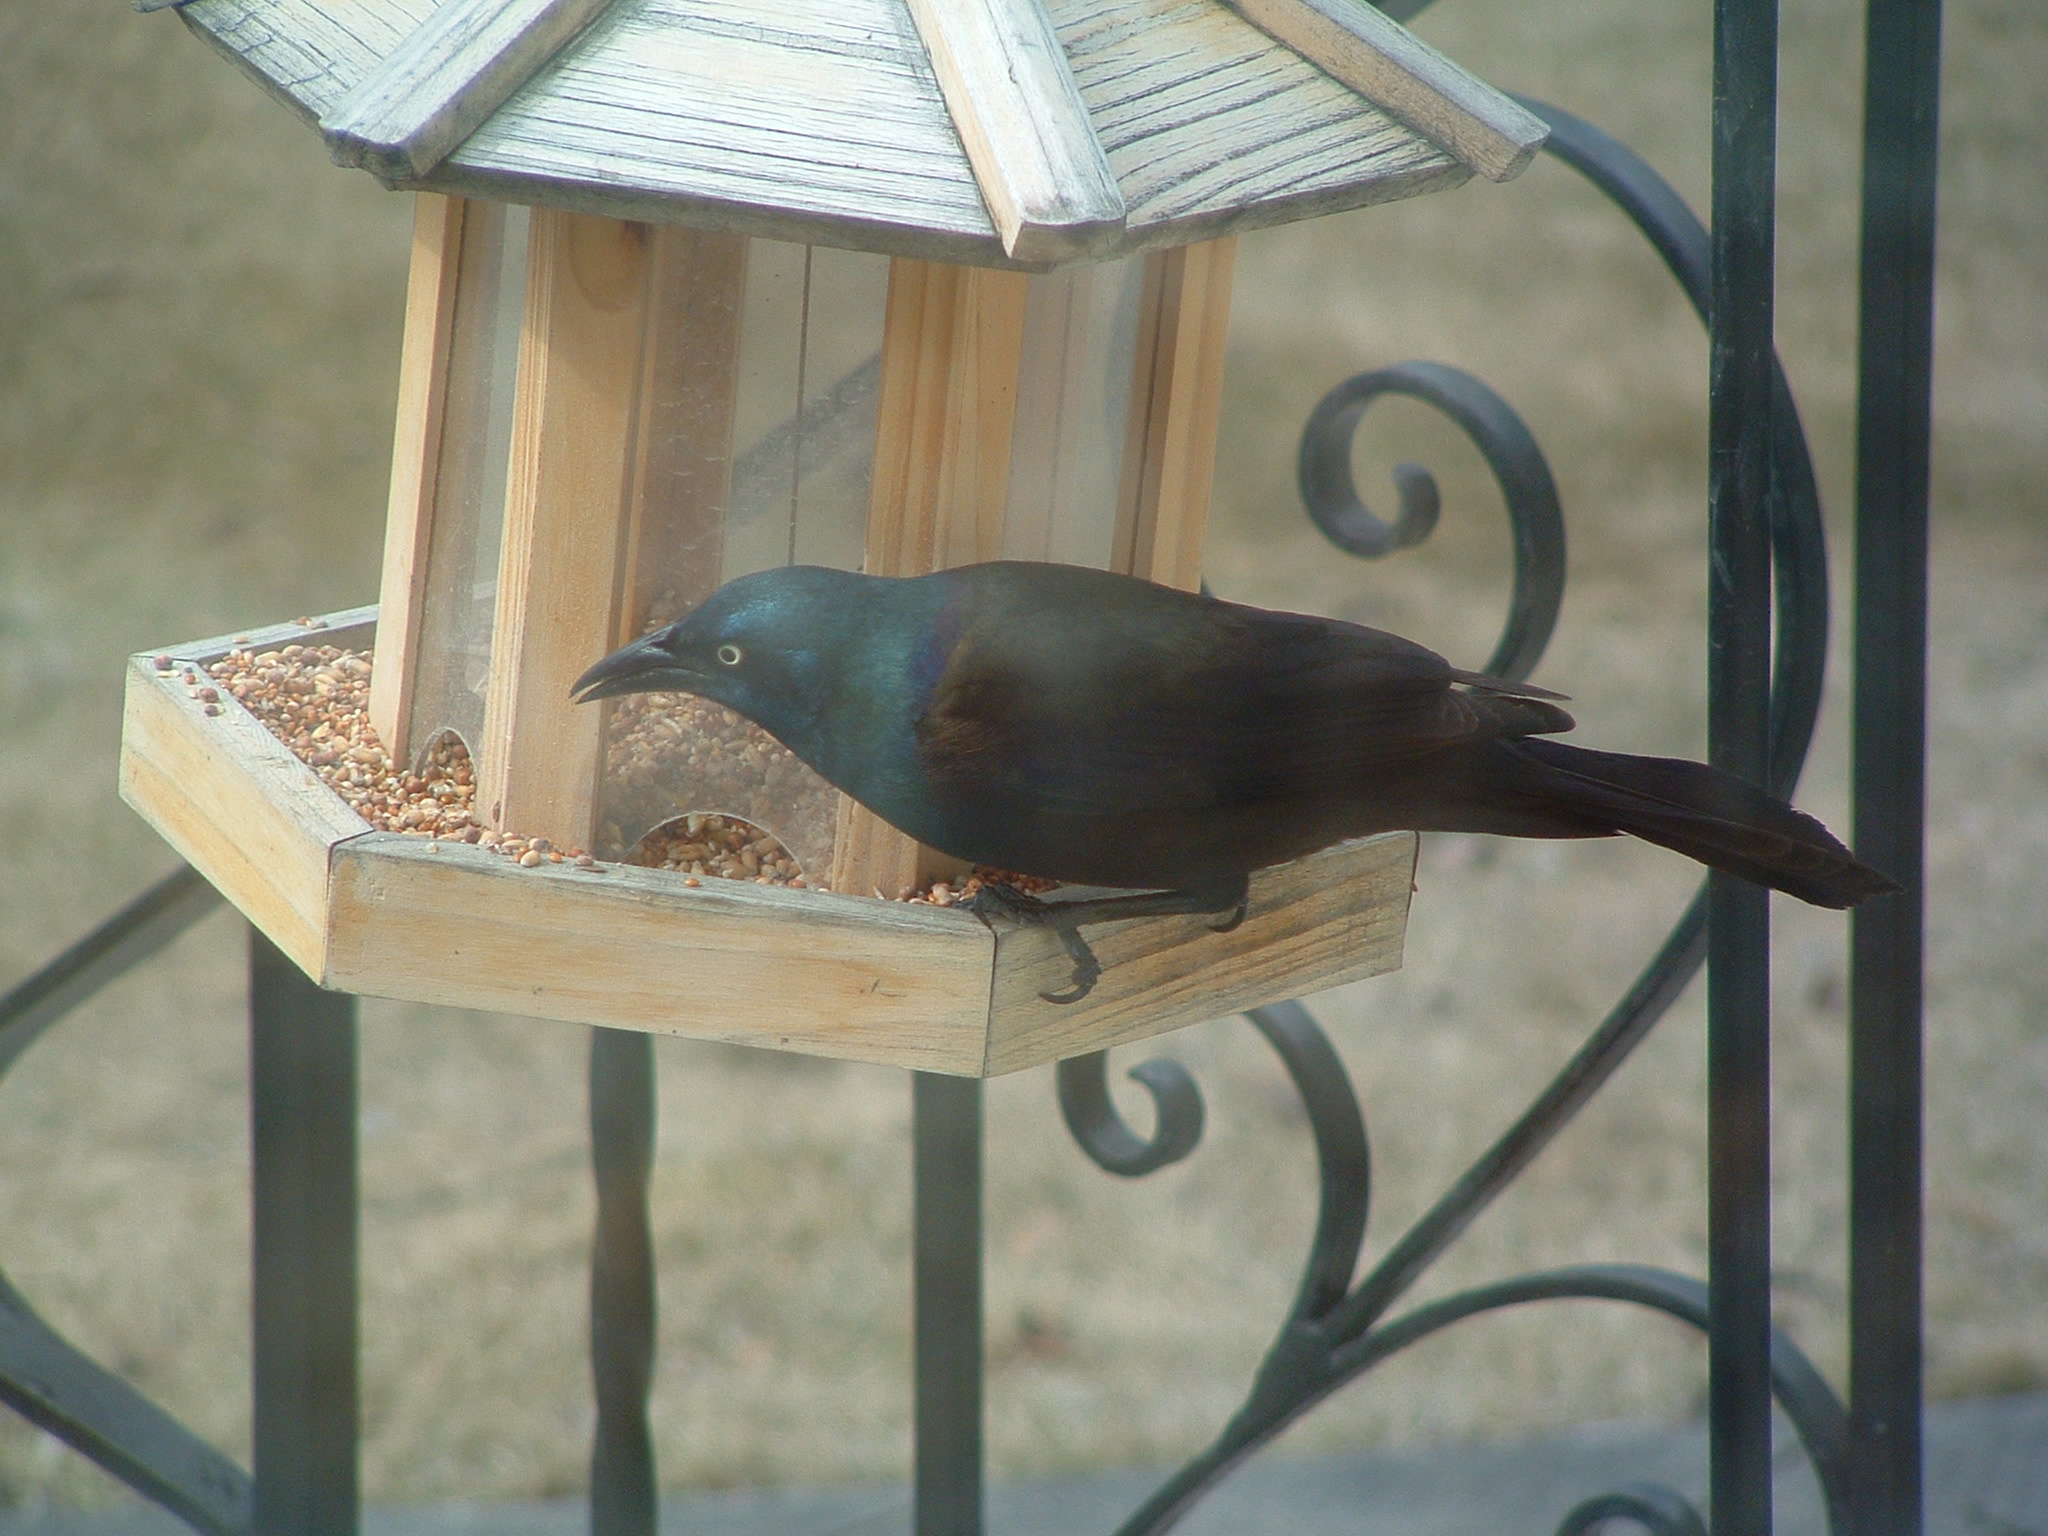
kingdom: Animalia
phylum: Chordata
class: Aves
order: Passeriformes
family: Icteridae
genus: Quiscalus
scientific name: Quiscalus quiscula
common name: Common grackle
